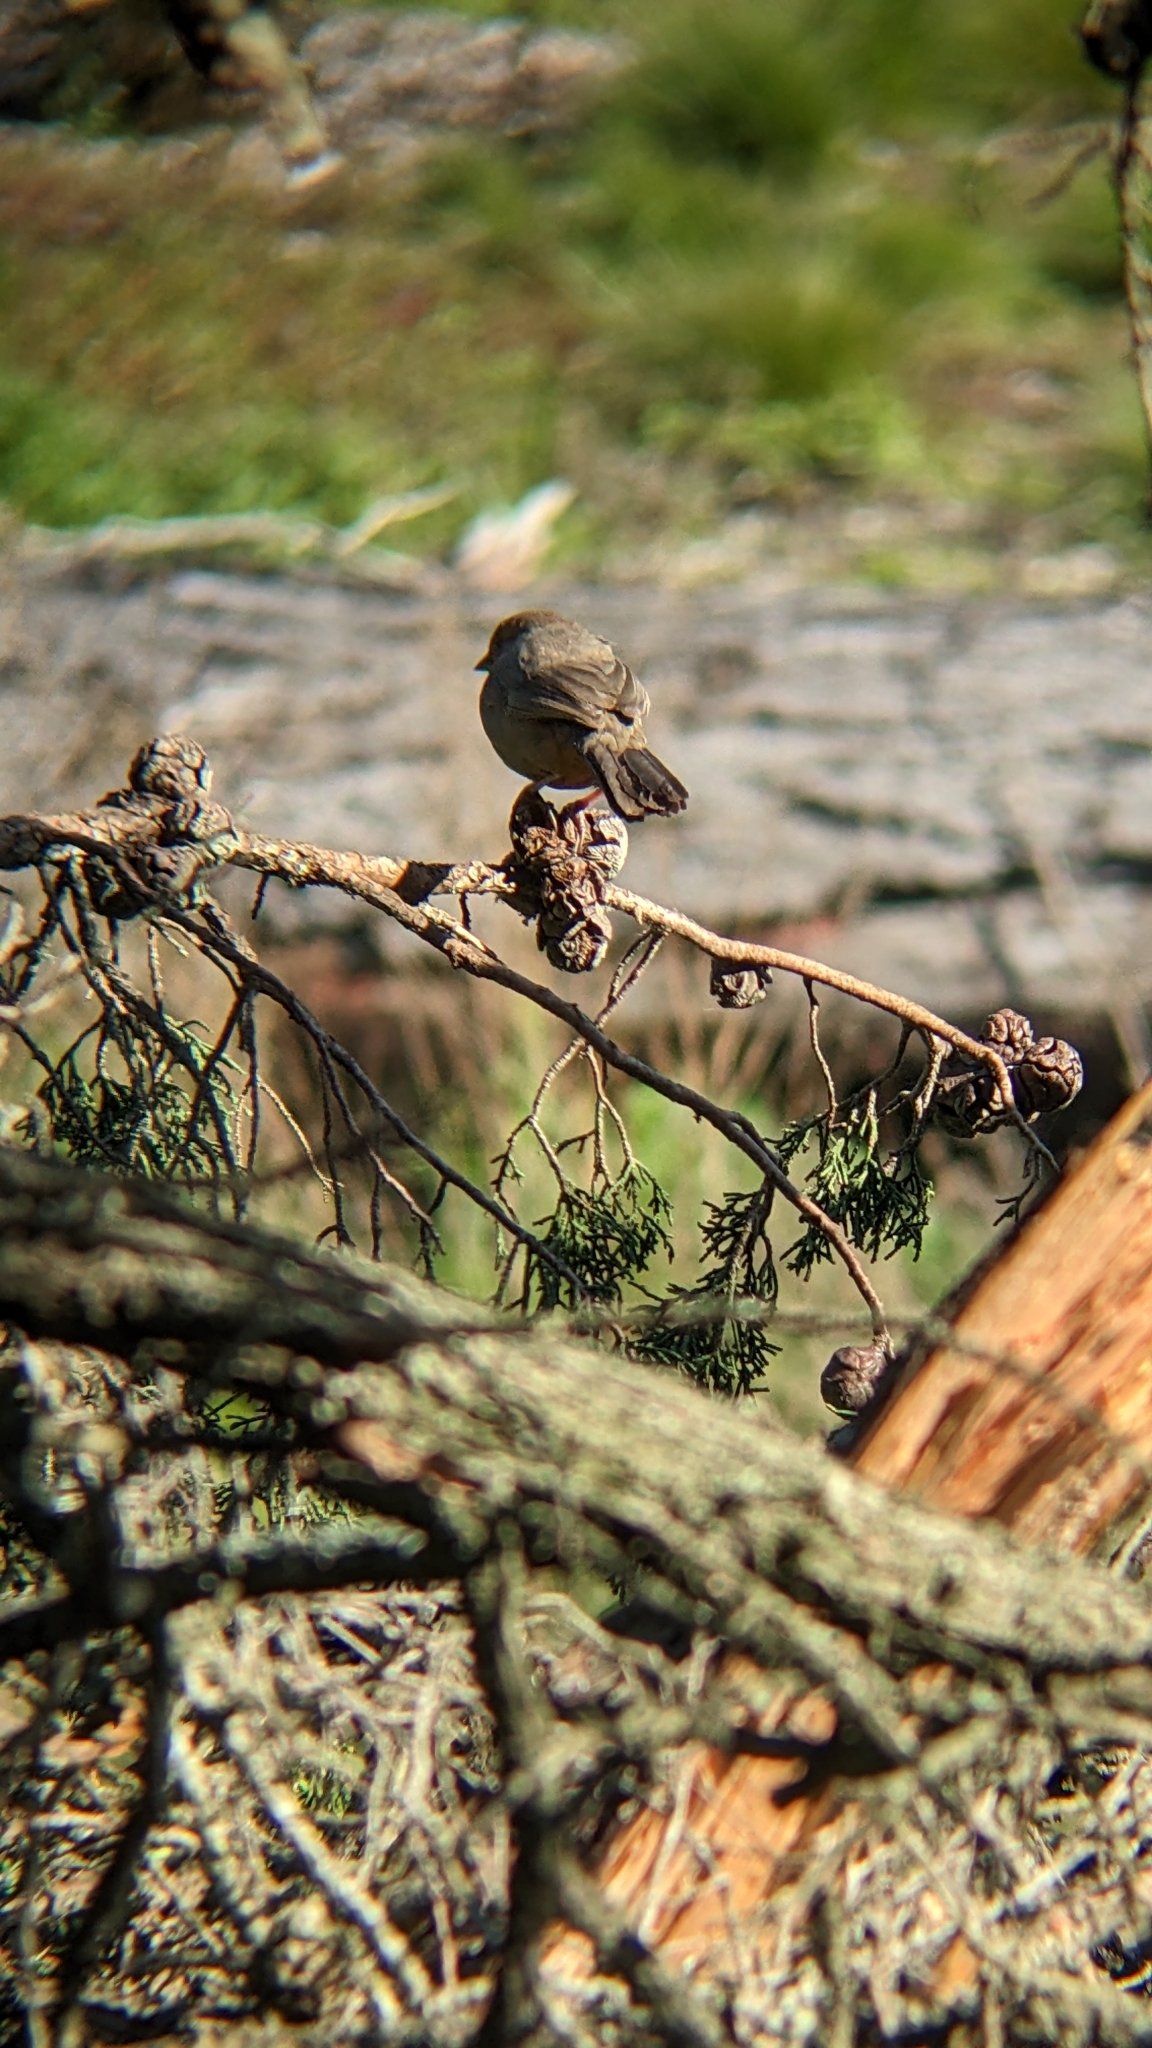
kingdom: Animalia
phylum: Chordata
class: Aves
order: Passeriformes
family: Passerellidae
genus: Melozone
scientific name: Melozone crissalis
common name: California towhee
